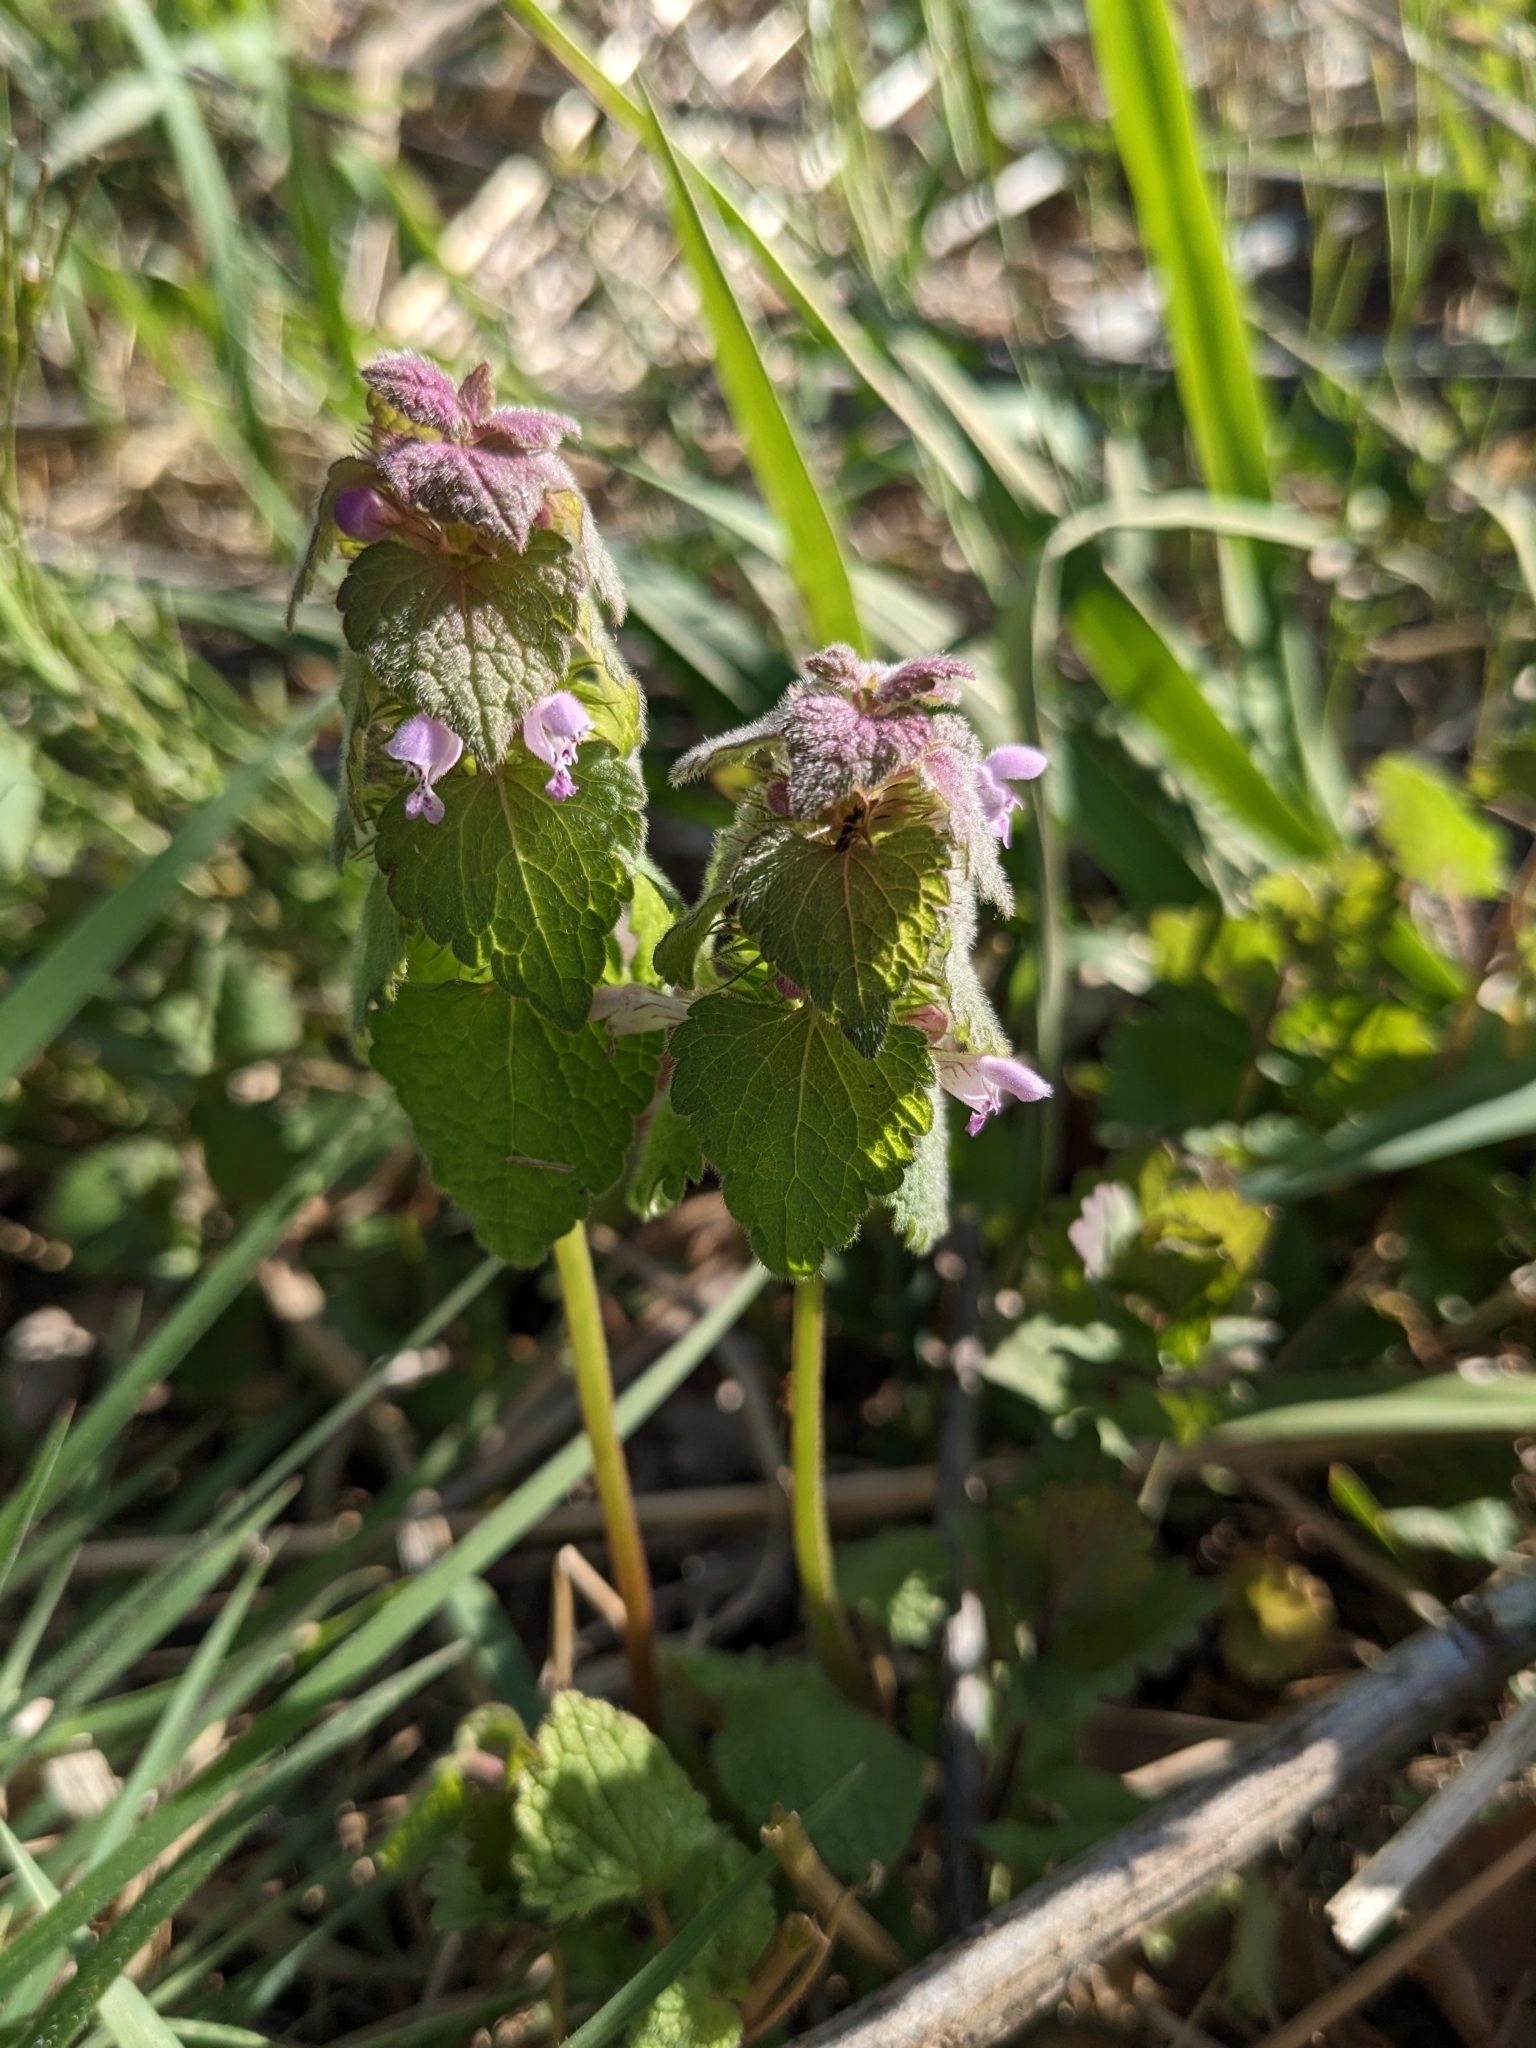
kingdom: Plantae
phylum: Tracheophyta
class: Magnoliopsida
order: Lamiales
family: Lamiaceae
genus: Lamium
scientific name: Lamium purpureum
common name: Red dead-nettle
